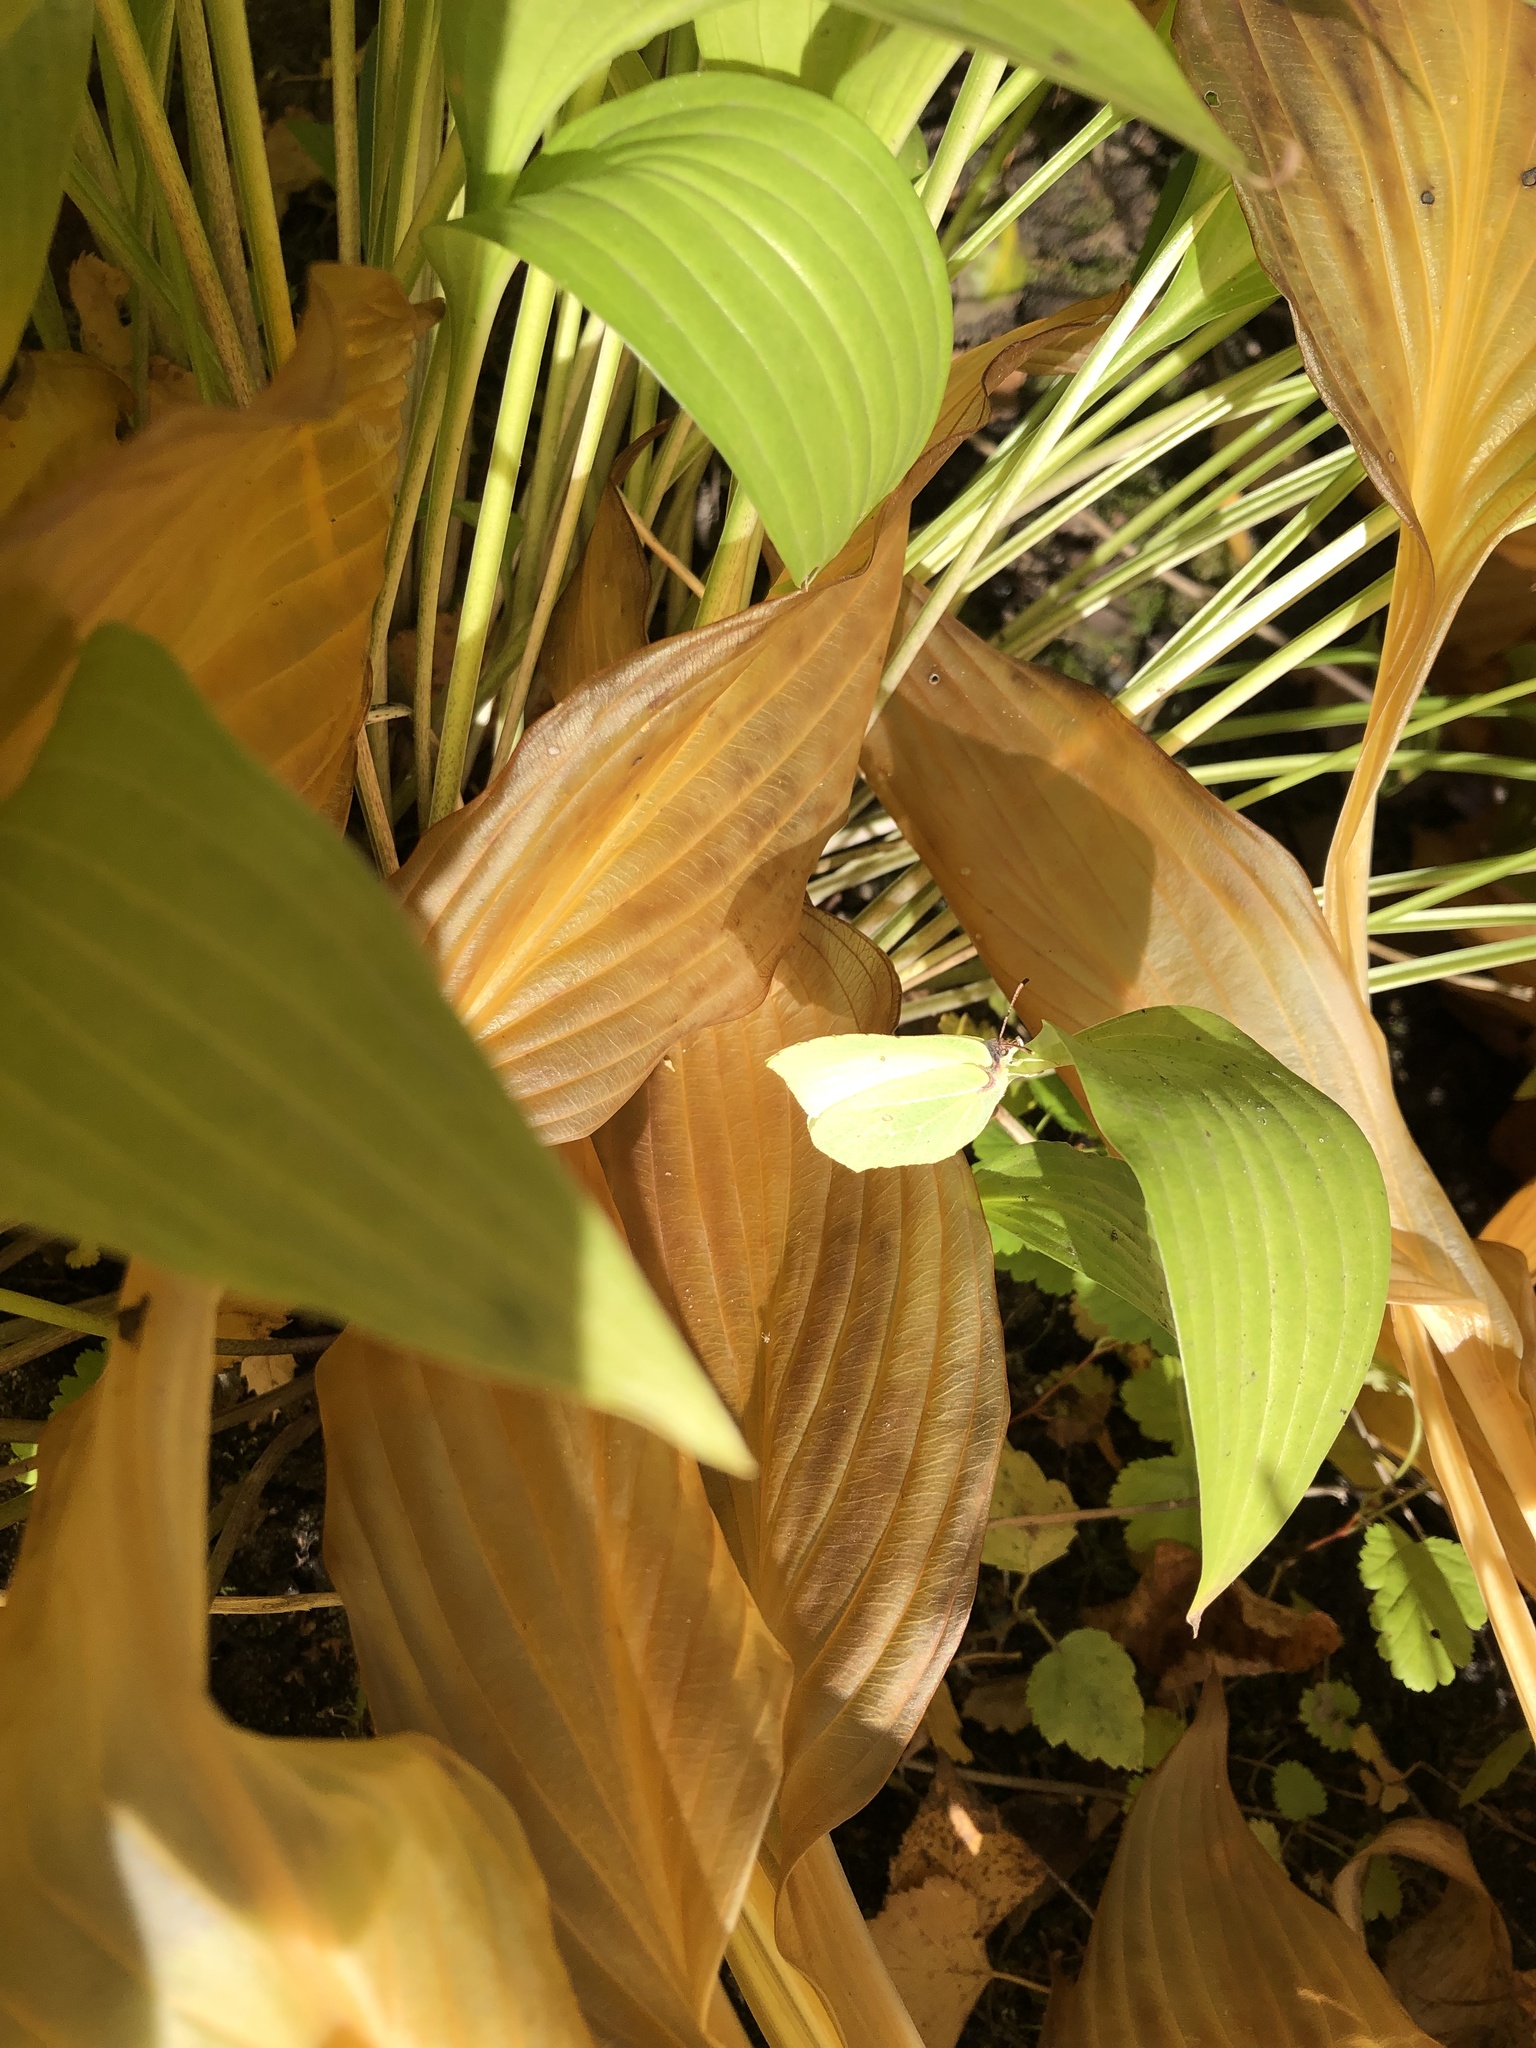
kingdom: Animalia
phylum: Arthropoda
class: Insecta
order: Lepidoptera
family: Pieridae
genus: Gonepteryx
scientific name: Gonepteryx rhamni
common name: Brimstone
